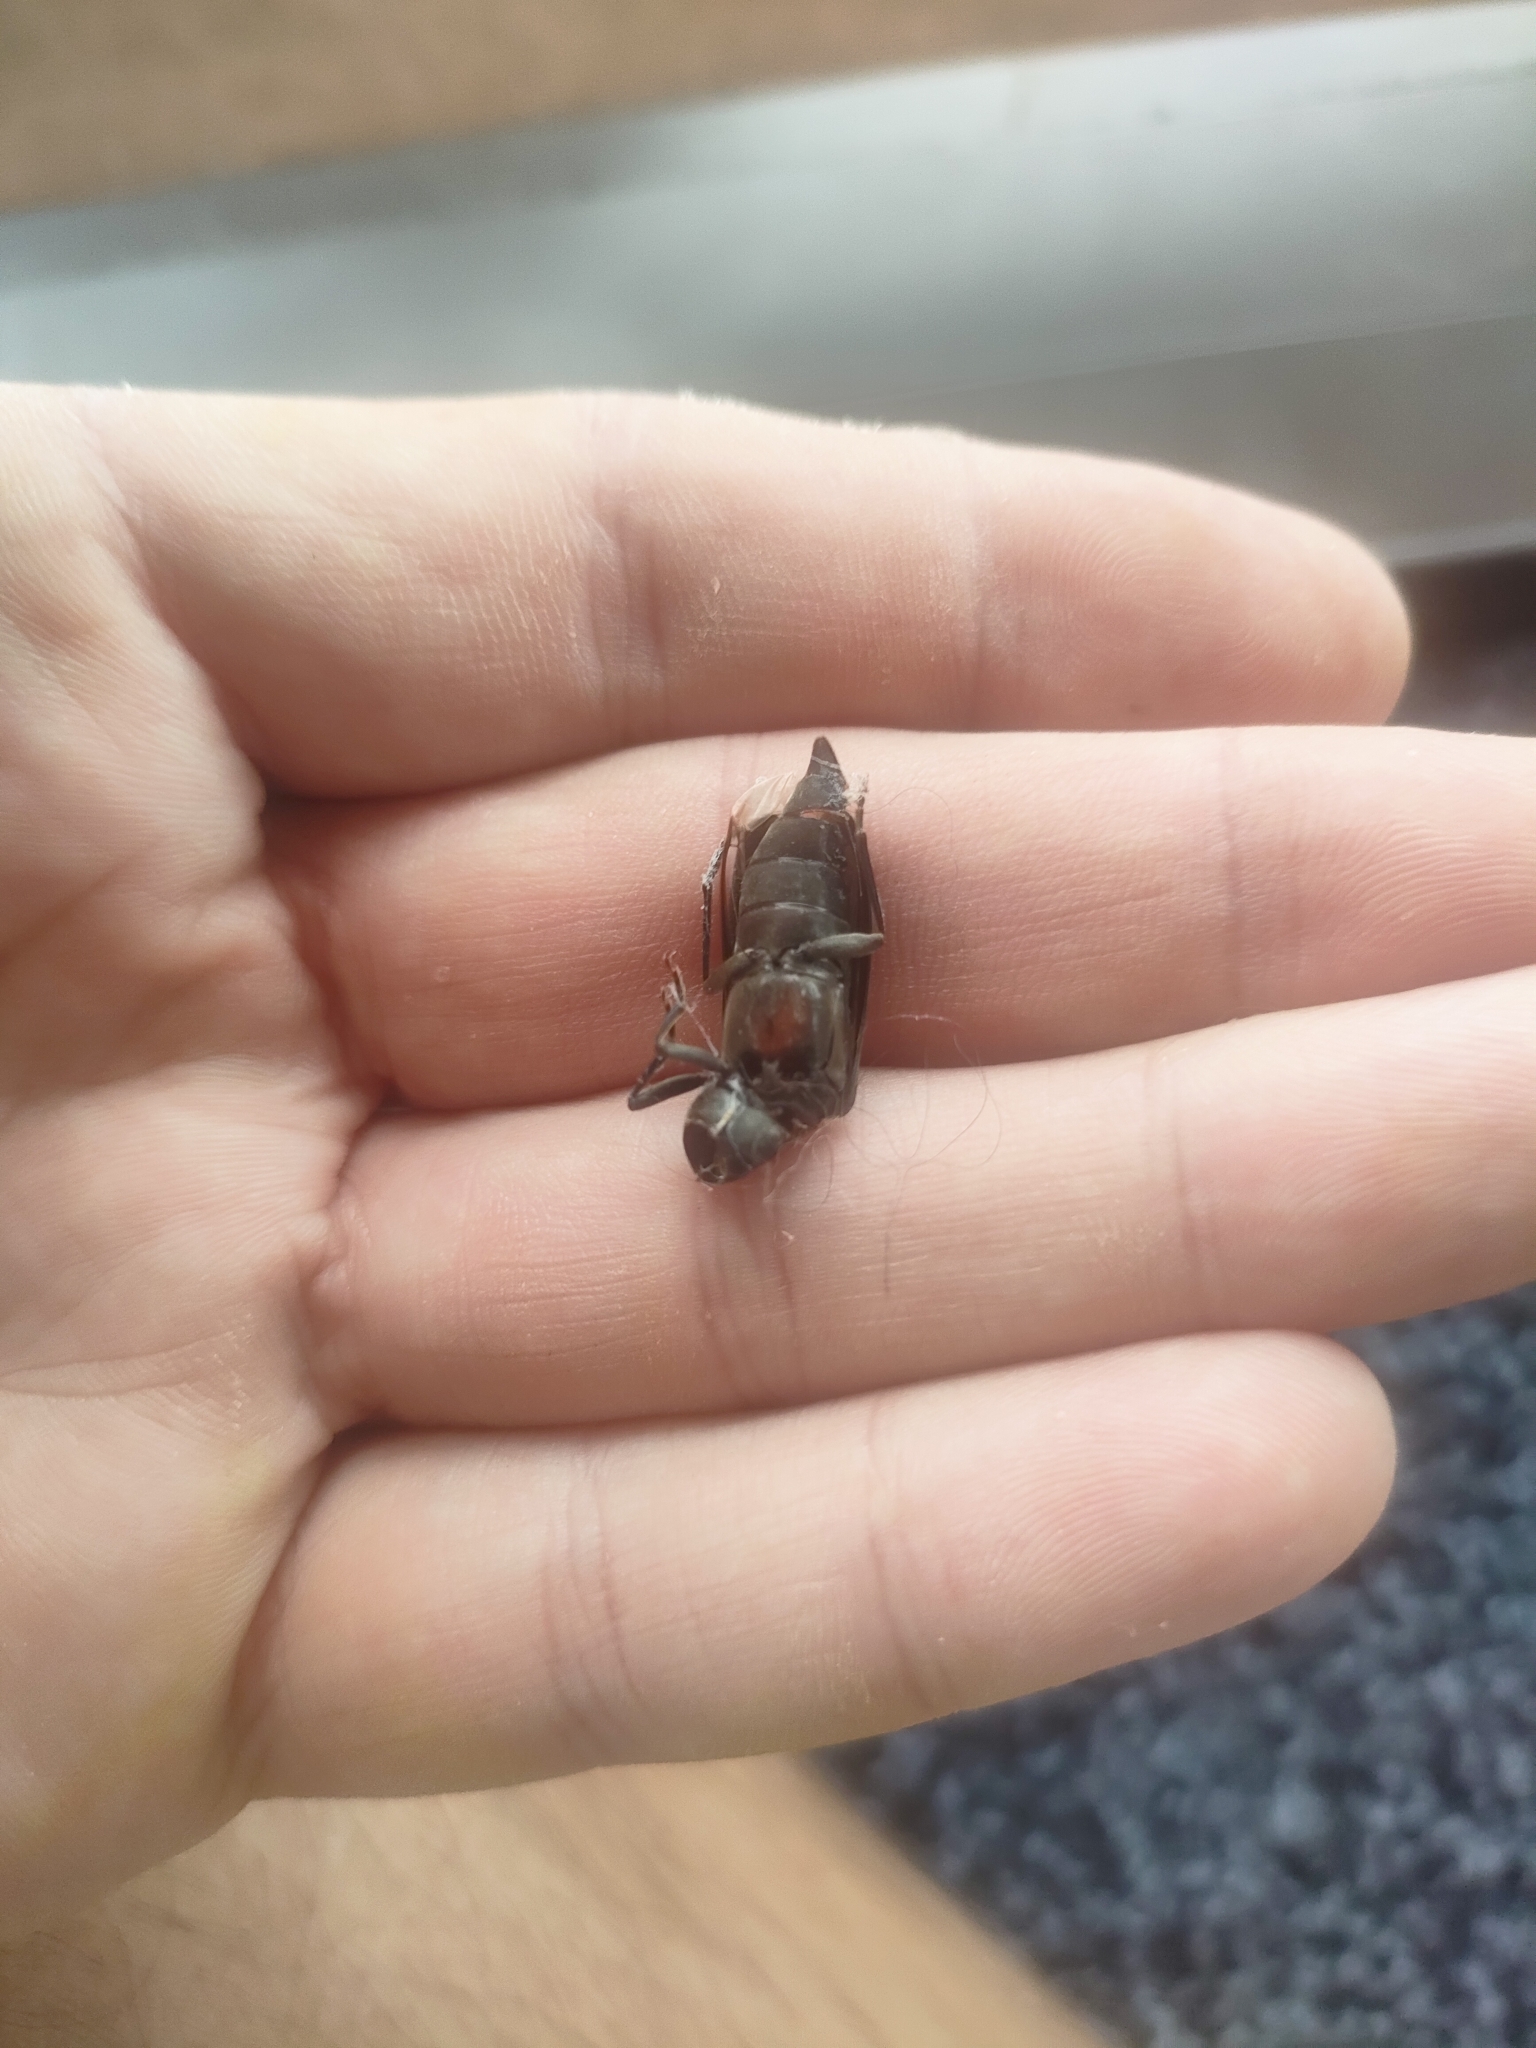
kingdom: Animalia
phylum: Arthropoda
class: Insecta
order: Coleoptera
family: Cerambycidae
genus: Arhopalus
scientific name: Arhopalus ferus
